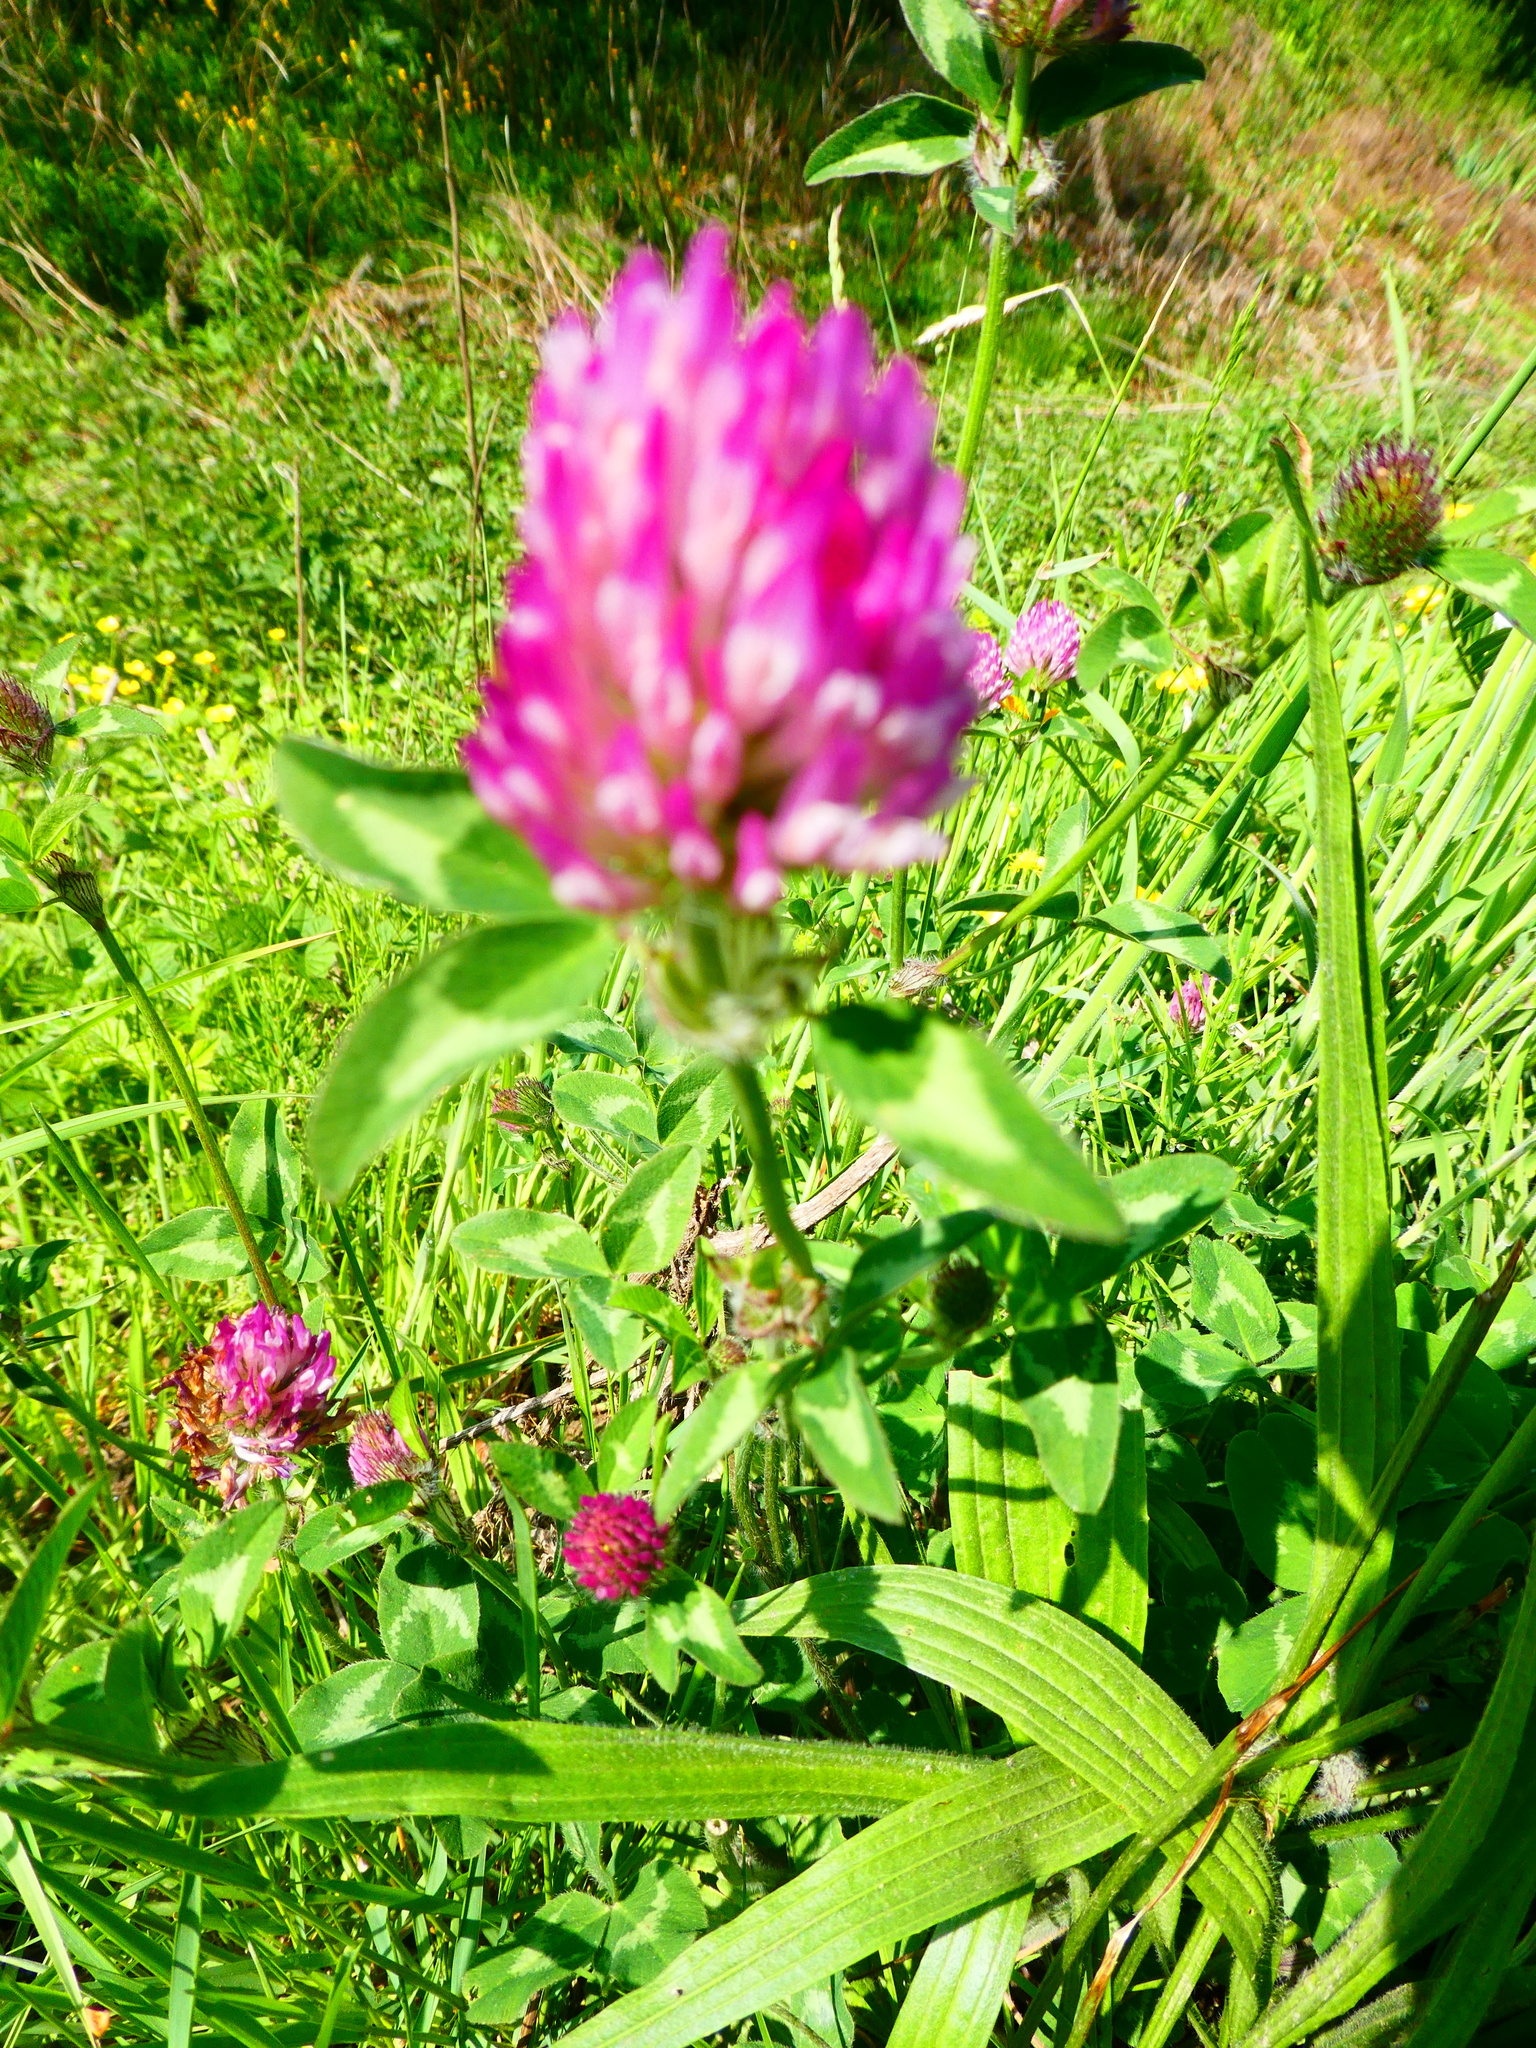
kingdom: Plantae
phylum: Tracheophyta
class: Magnoliopsida
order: Fabales
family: Fabaceae
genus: Trifolium
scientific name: Trifolium pratense
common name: Red clover
